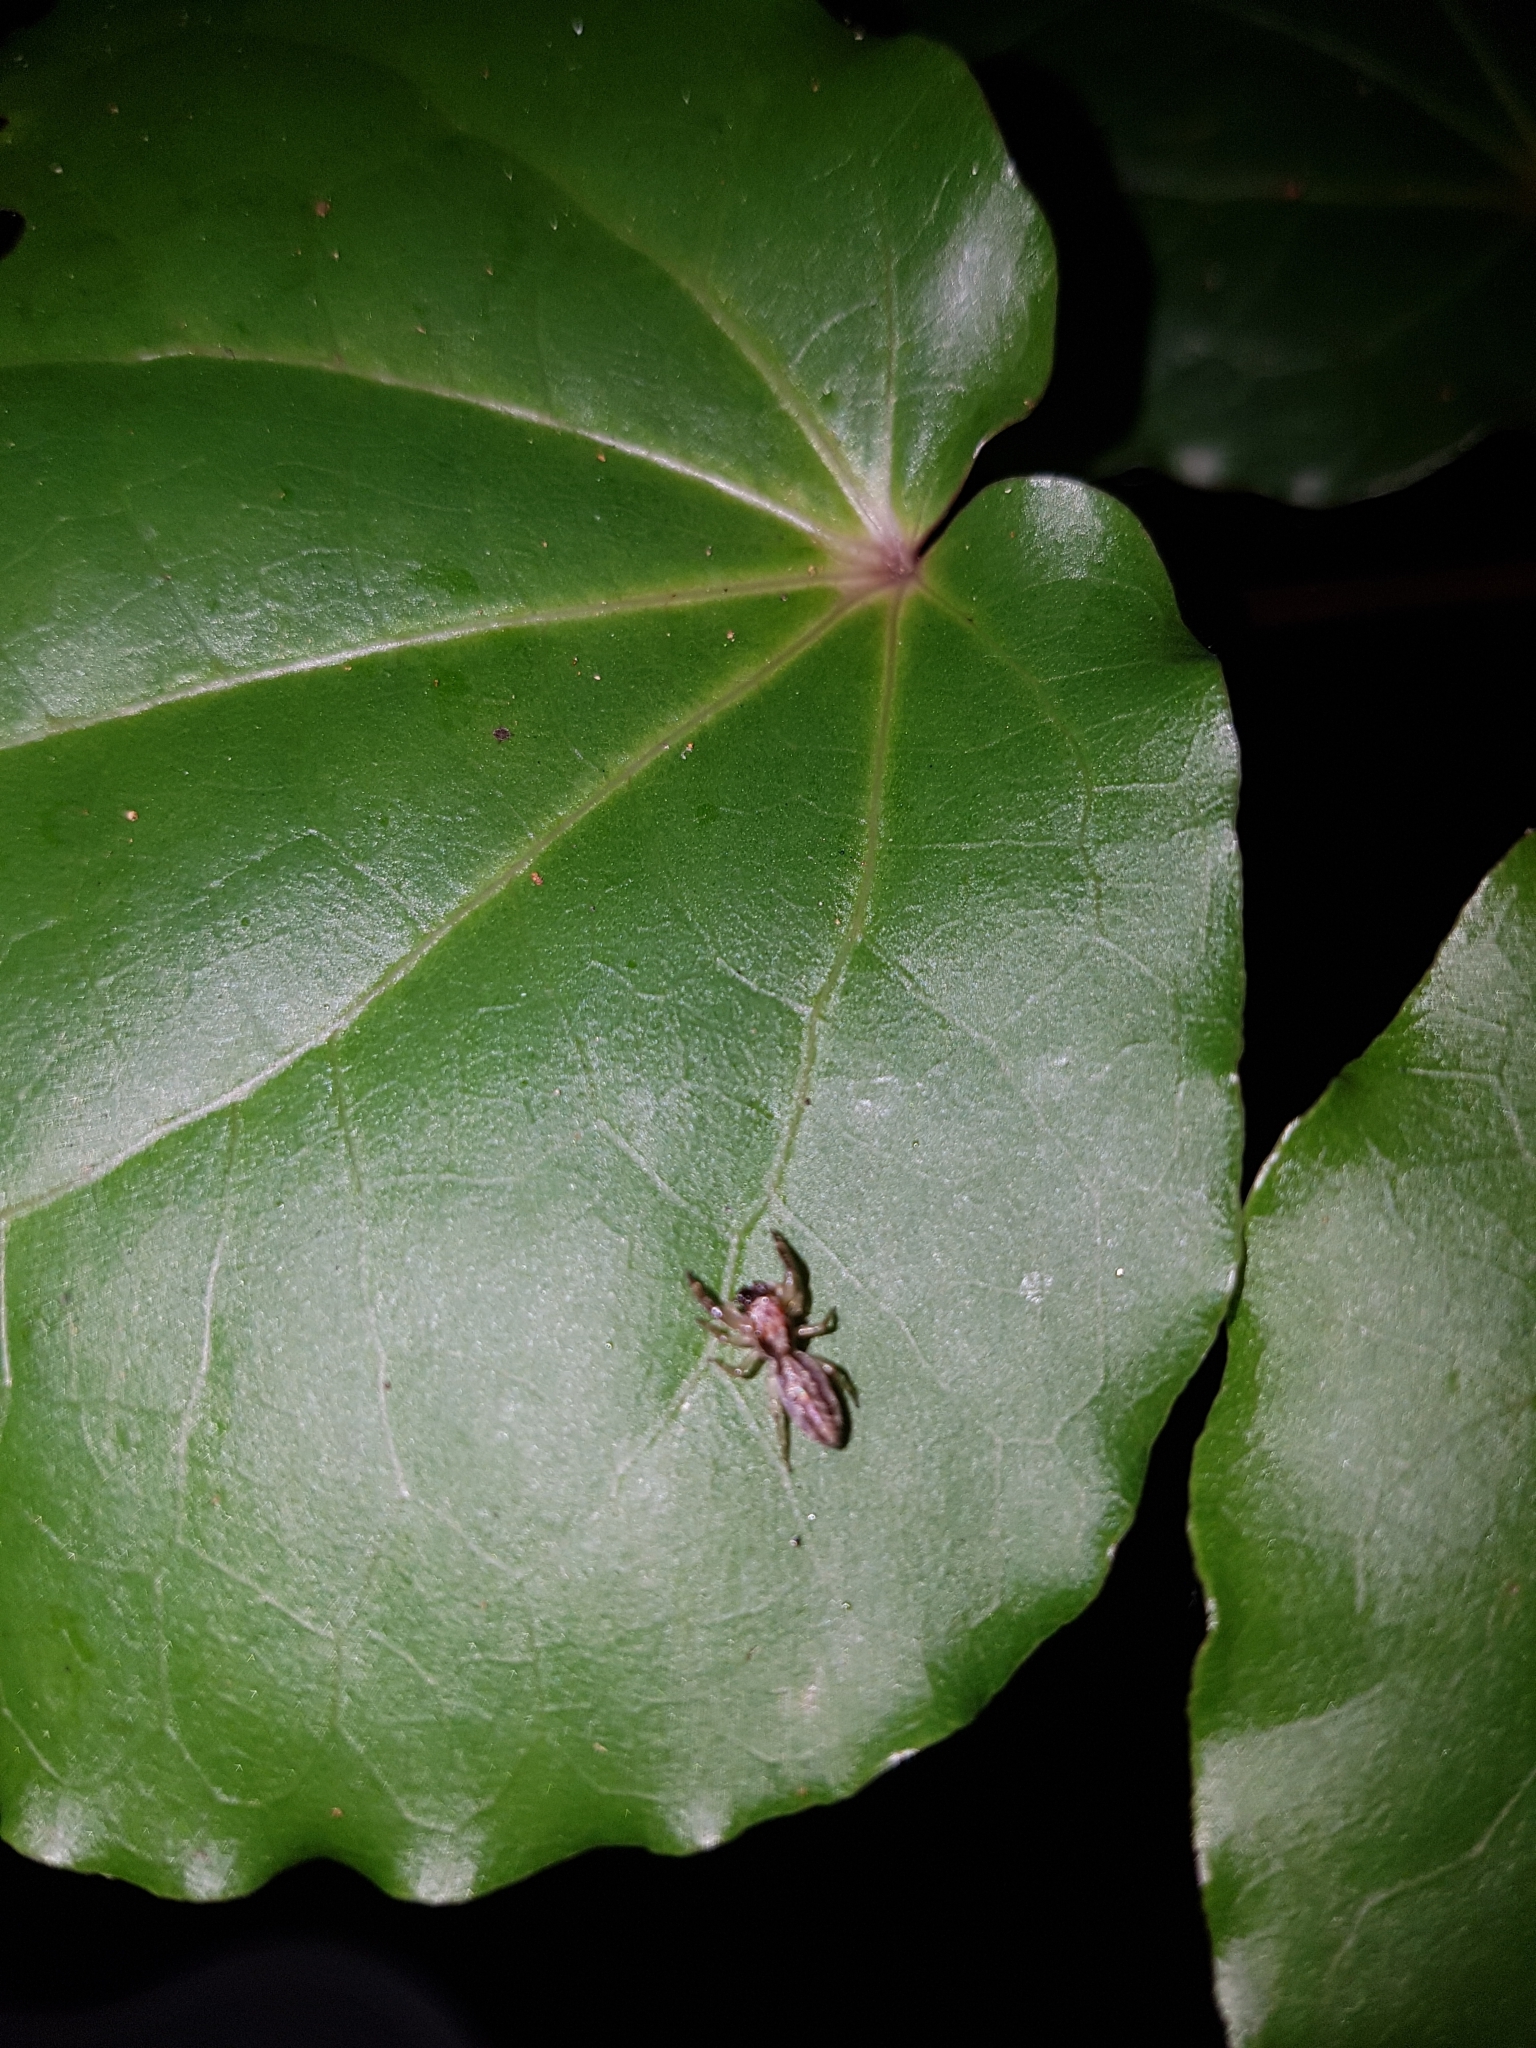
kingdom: Animalia
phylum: Arthropoda
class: Arachnida
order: Araneae
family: Salticidae
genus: Trite
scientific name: Trite mustilina
